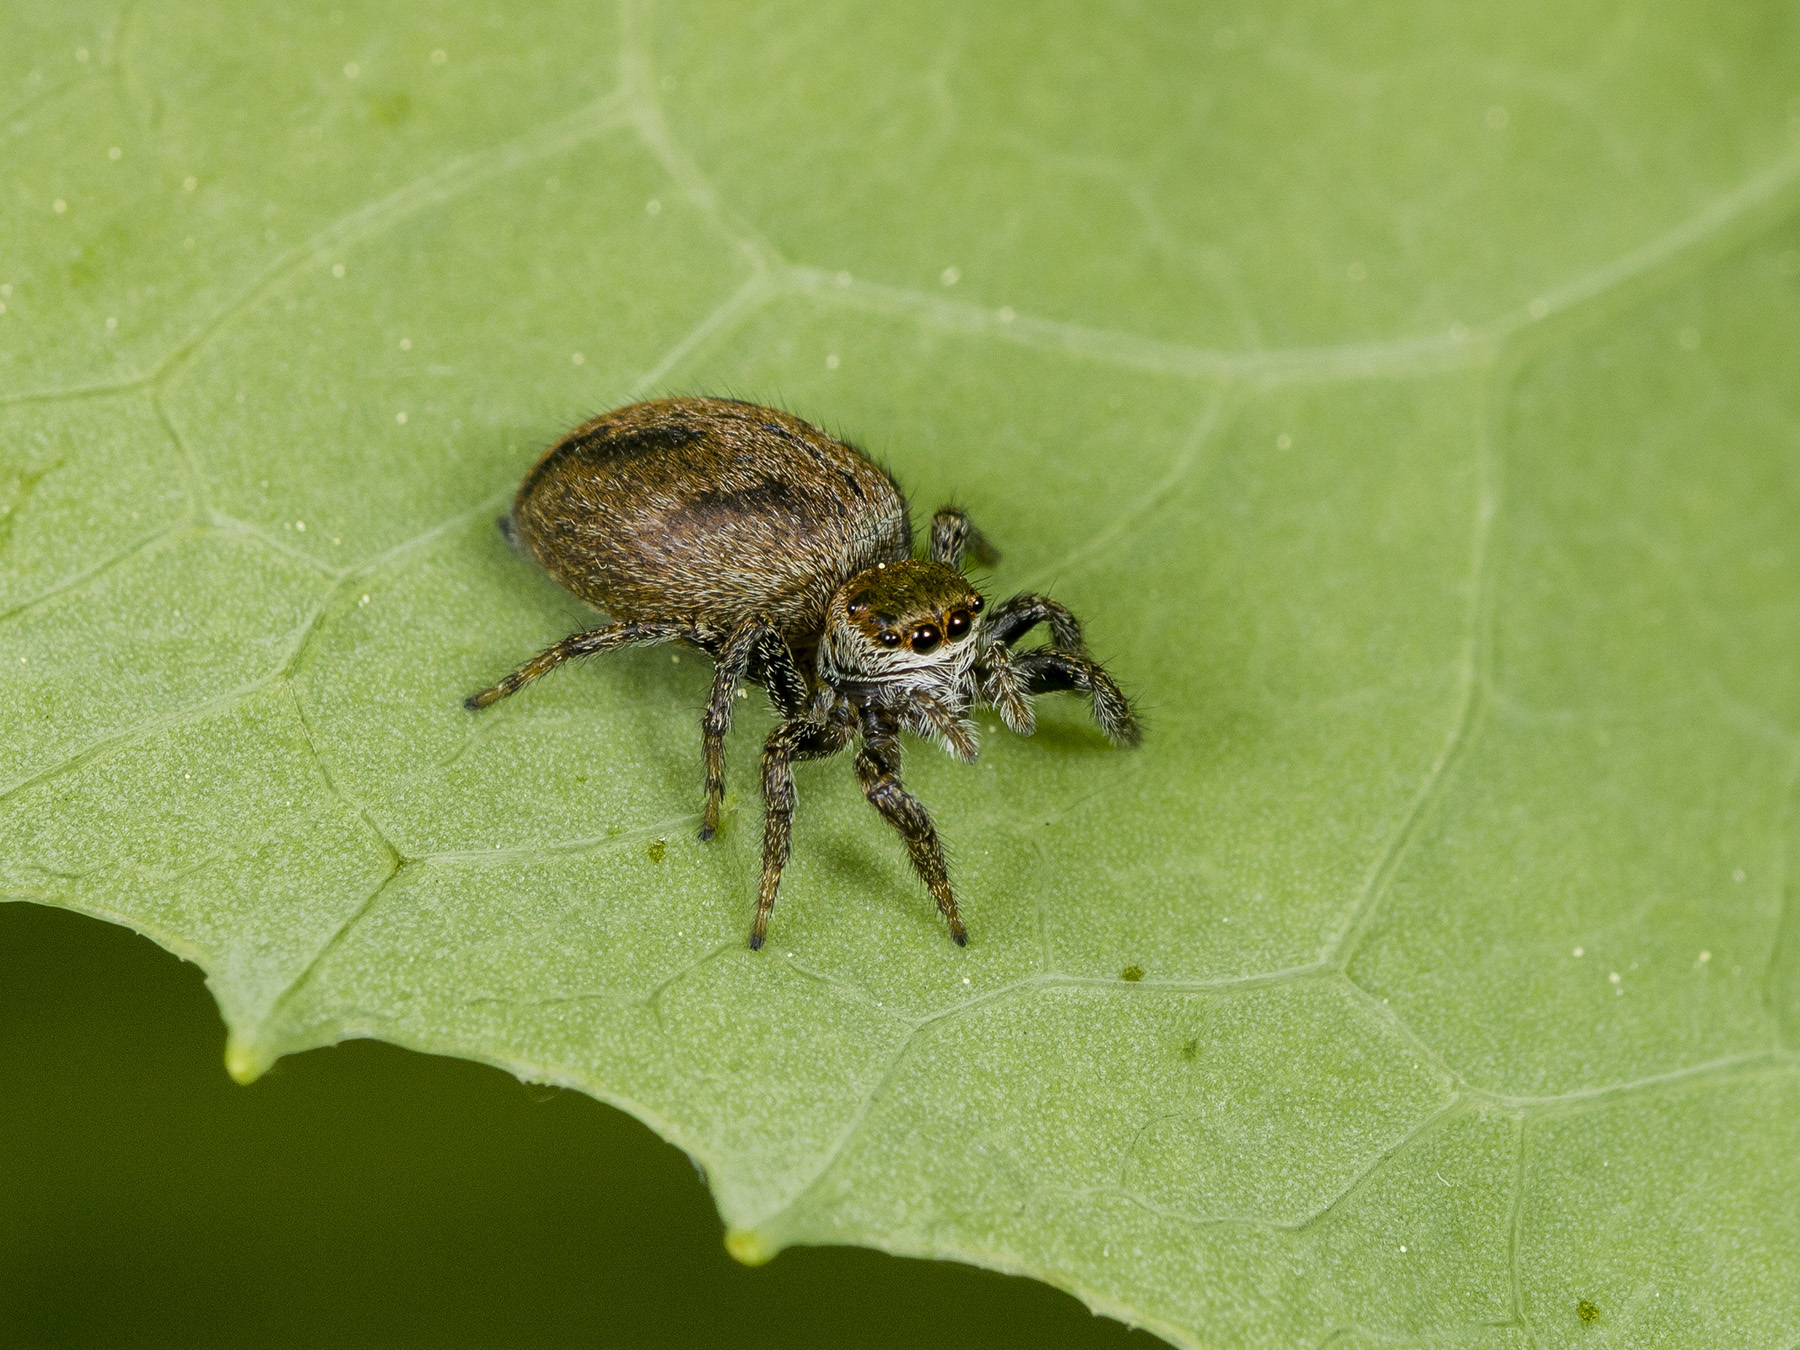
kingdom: Animalia
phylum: Arthropoda
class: Arachnida
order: Araneae
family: Salticidae
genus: Evarcha
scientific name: Evarcha arcuata
